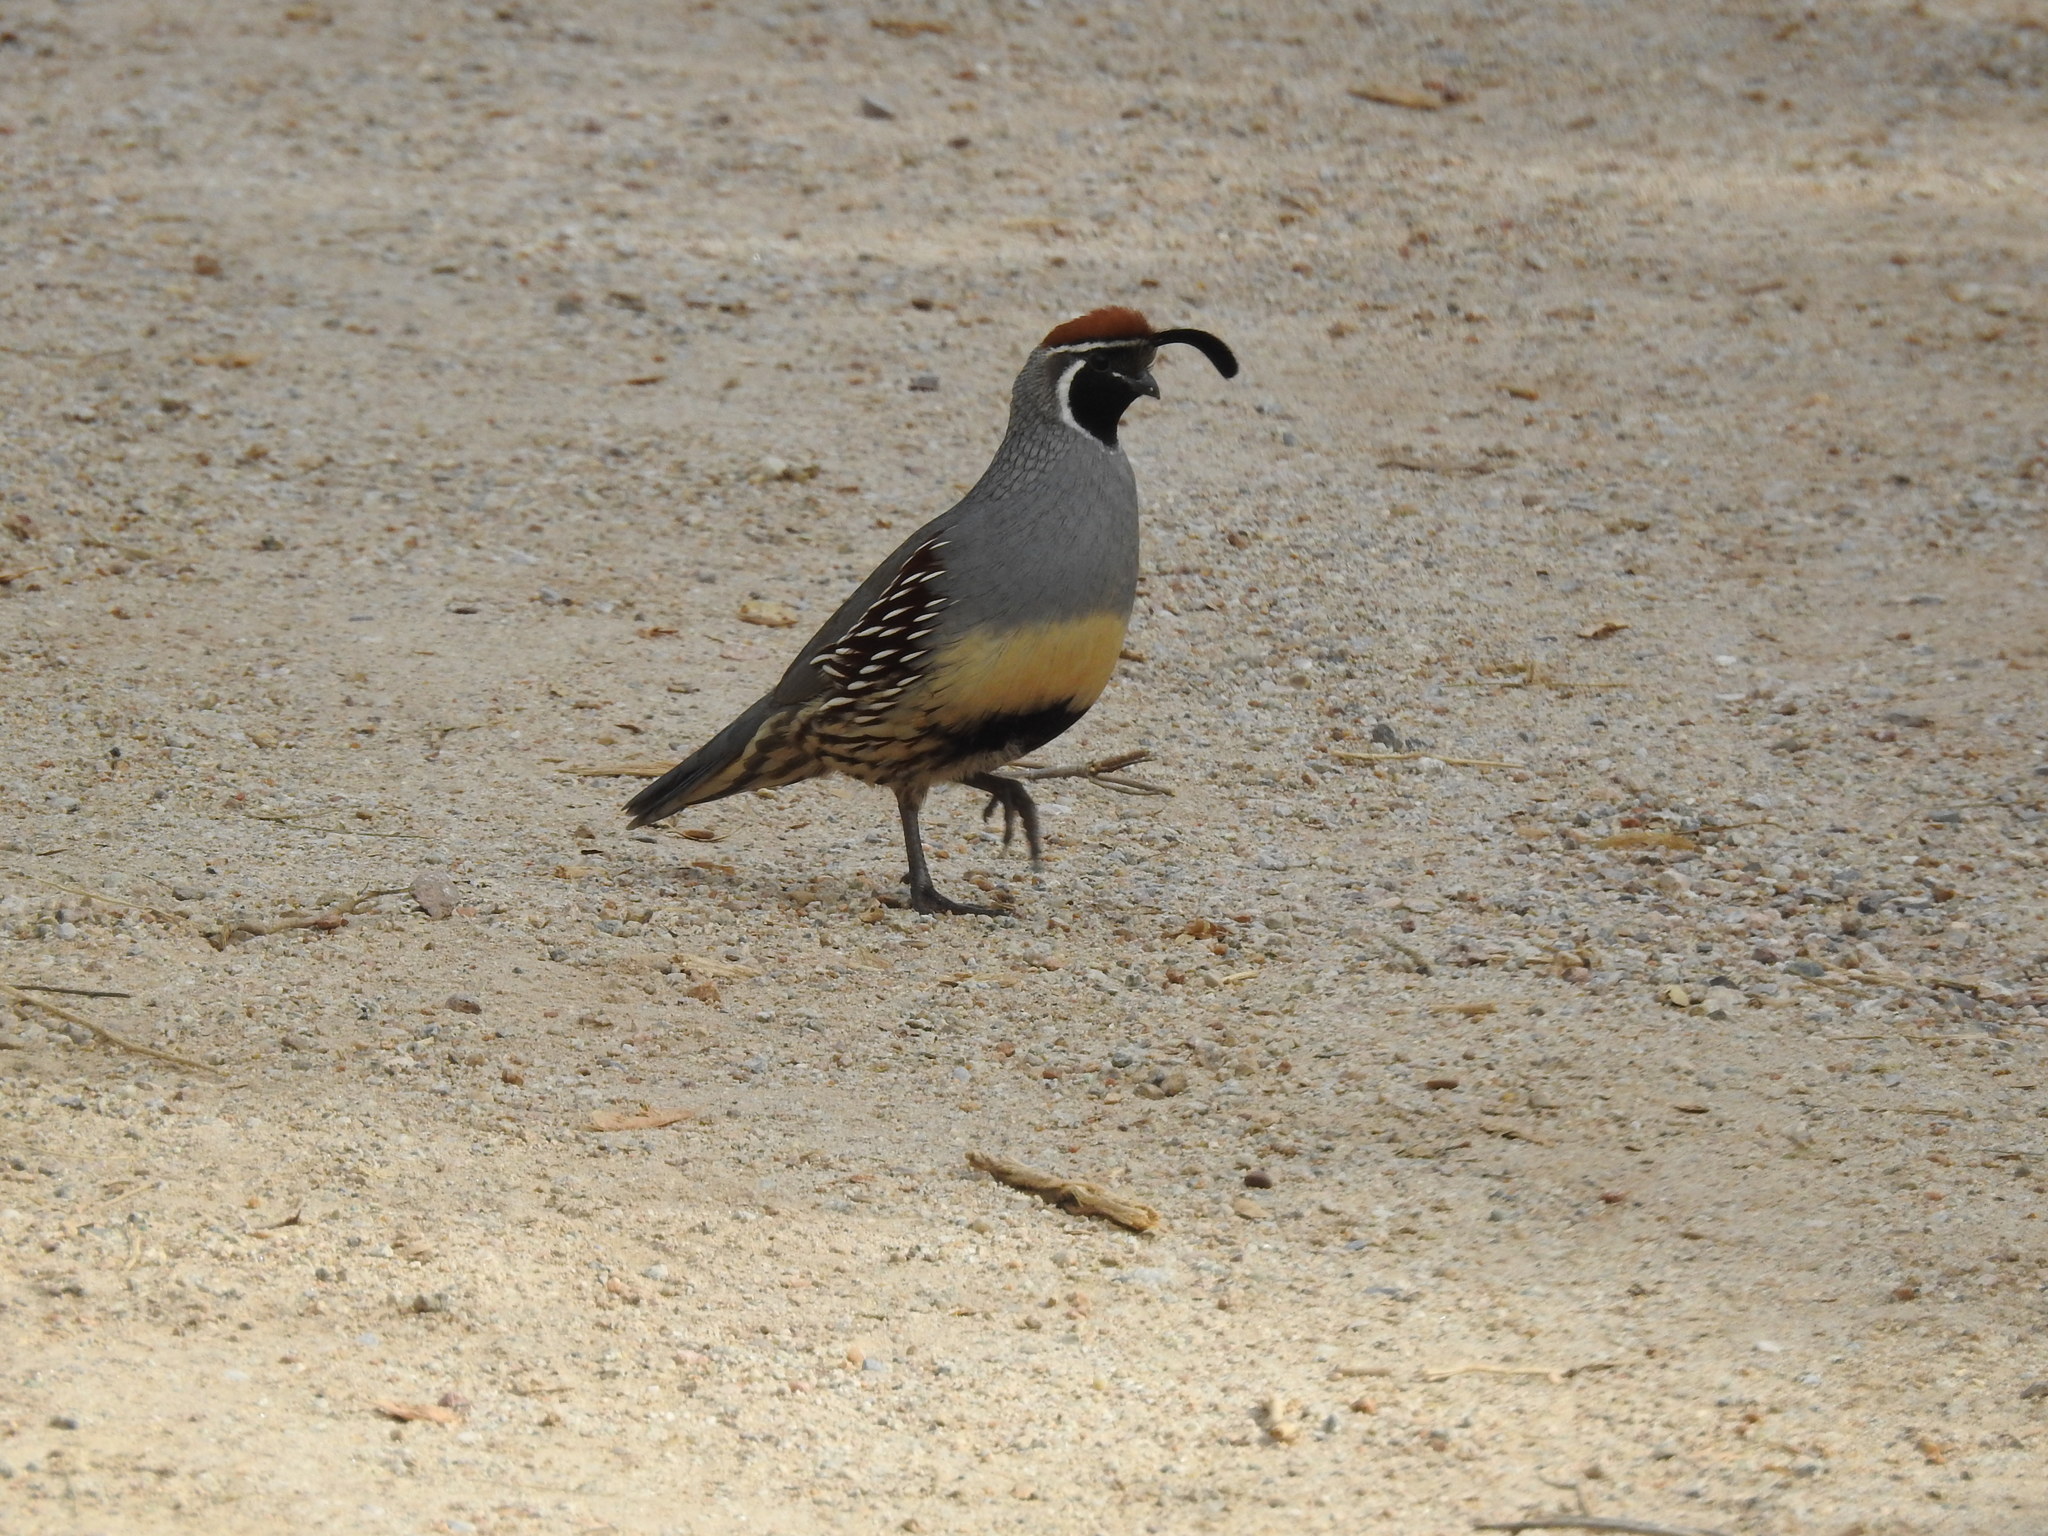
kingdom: Animalia
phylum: Chordata
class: Aves
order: Galliformes
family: Odontophoridae
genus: Callipepla
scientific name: Callipepla gambelii
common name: Gambel's quail
